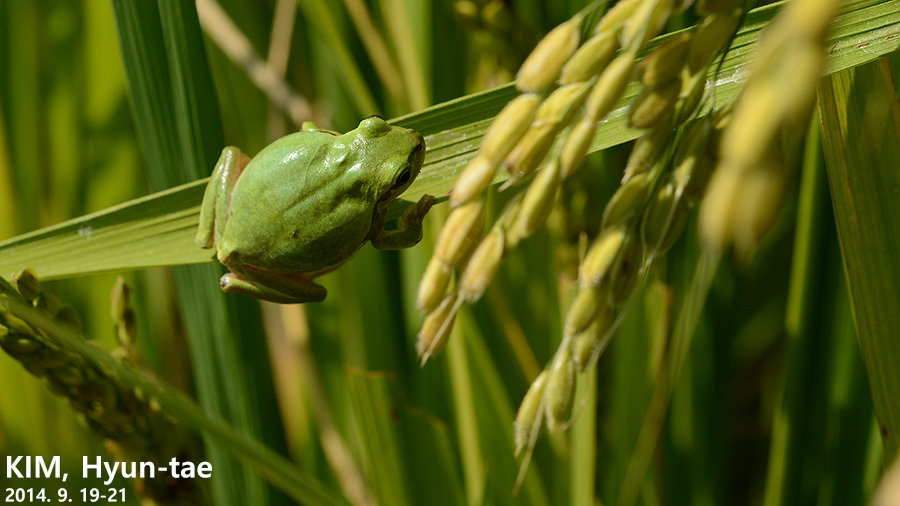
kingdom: Animalia
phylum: Chordata
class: Amphibia
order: Anura
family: Hylidae
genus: Hyla
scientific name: Hyla
